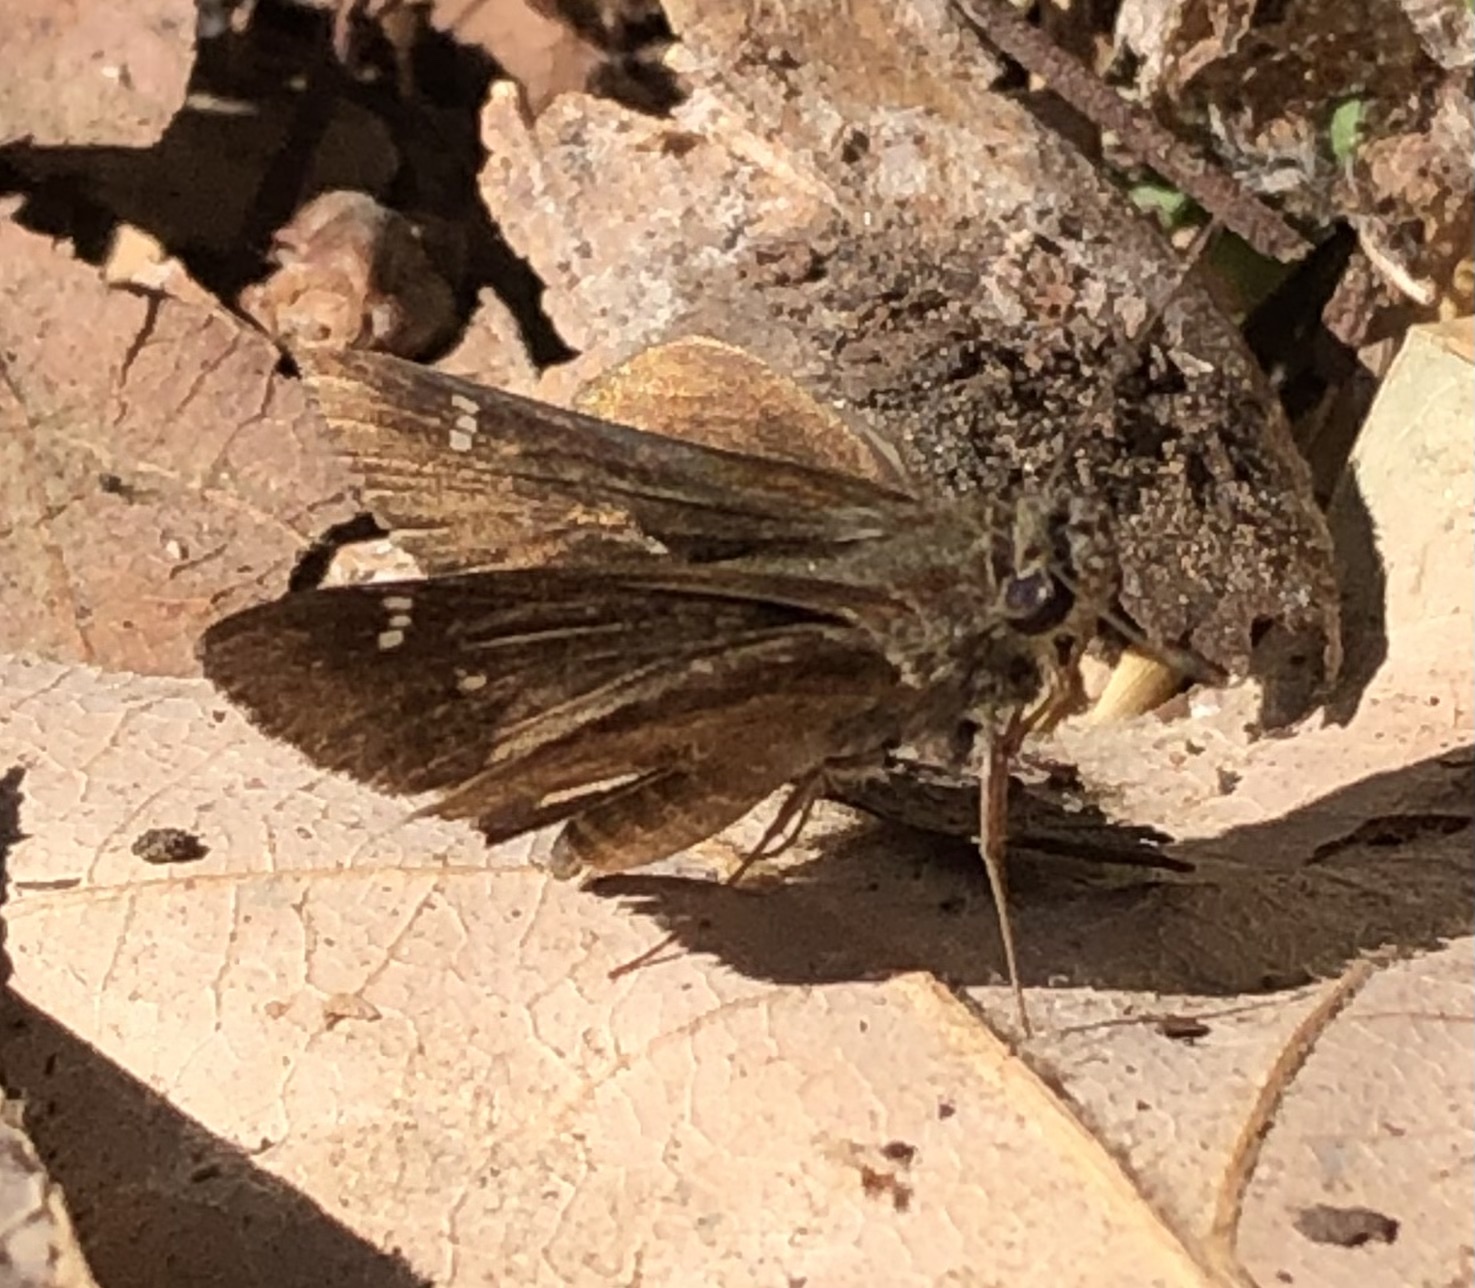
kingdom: Animalia
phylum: Arthropoda
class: Insecta
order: Lepidoptera
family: Hesperiidae
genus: Lerema
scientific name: Lerema accius
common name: Clouded skipper
